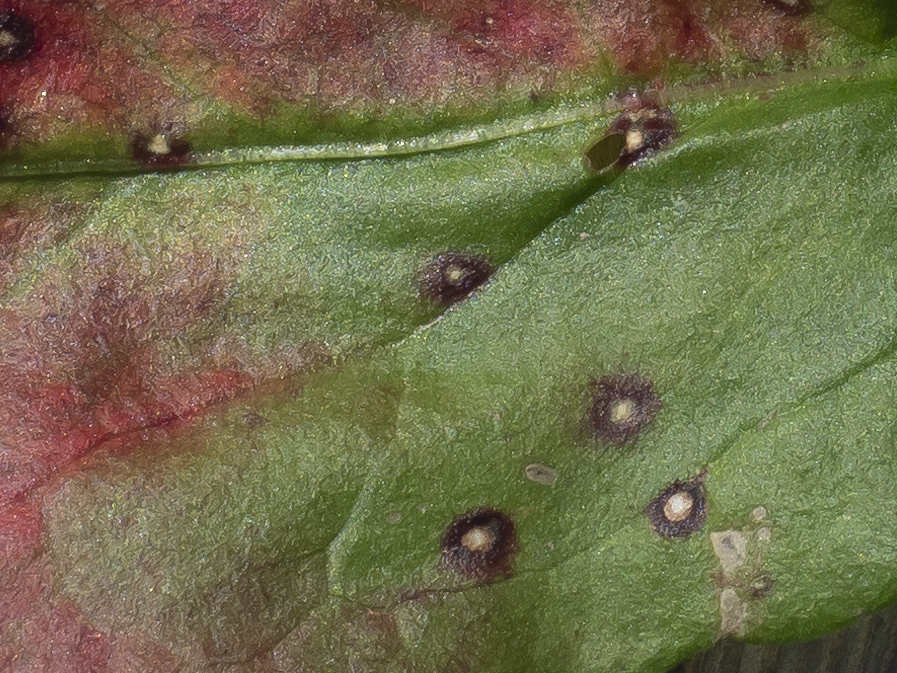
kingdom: Fungi
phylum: Ascomycota
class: Dothideomycetes
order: Mycosphaerellales
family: Mycosphaerellaceae
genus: Ramularia
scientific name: Ramularia pratensis
